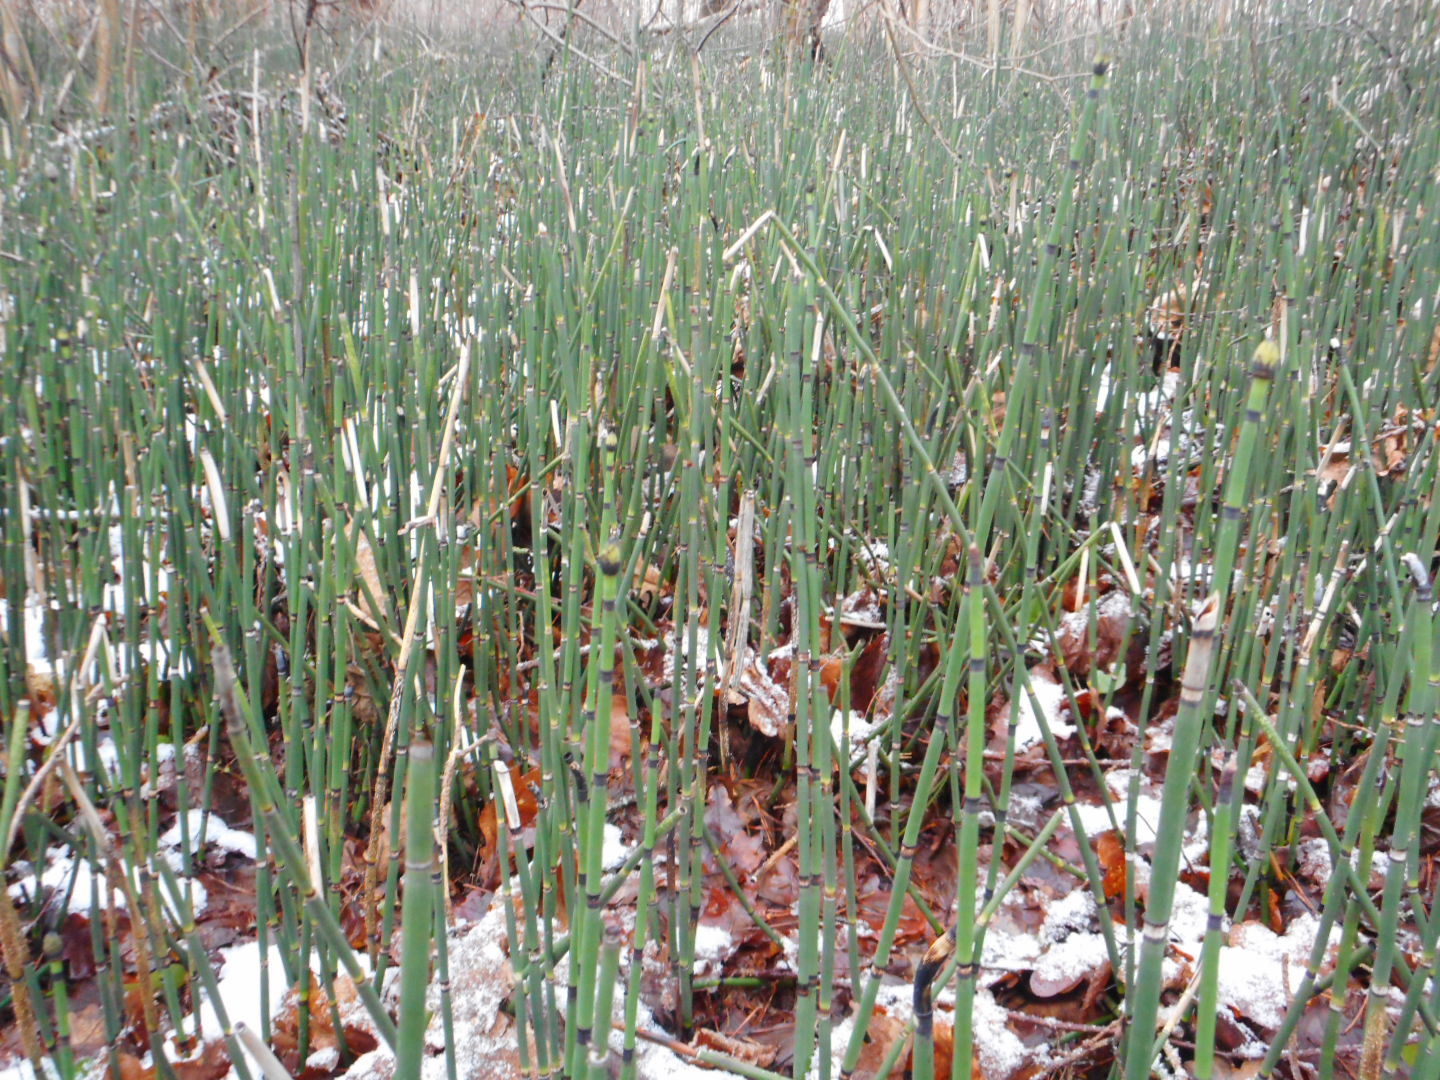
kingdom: Plantae
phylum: Tracheophyta
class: Polypodiopsida
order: Equisetales
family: Equisetaceae
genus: Equisetum
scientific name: Equisetum hyemale
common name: Rough horsetail
